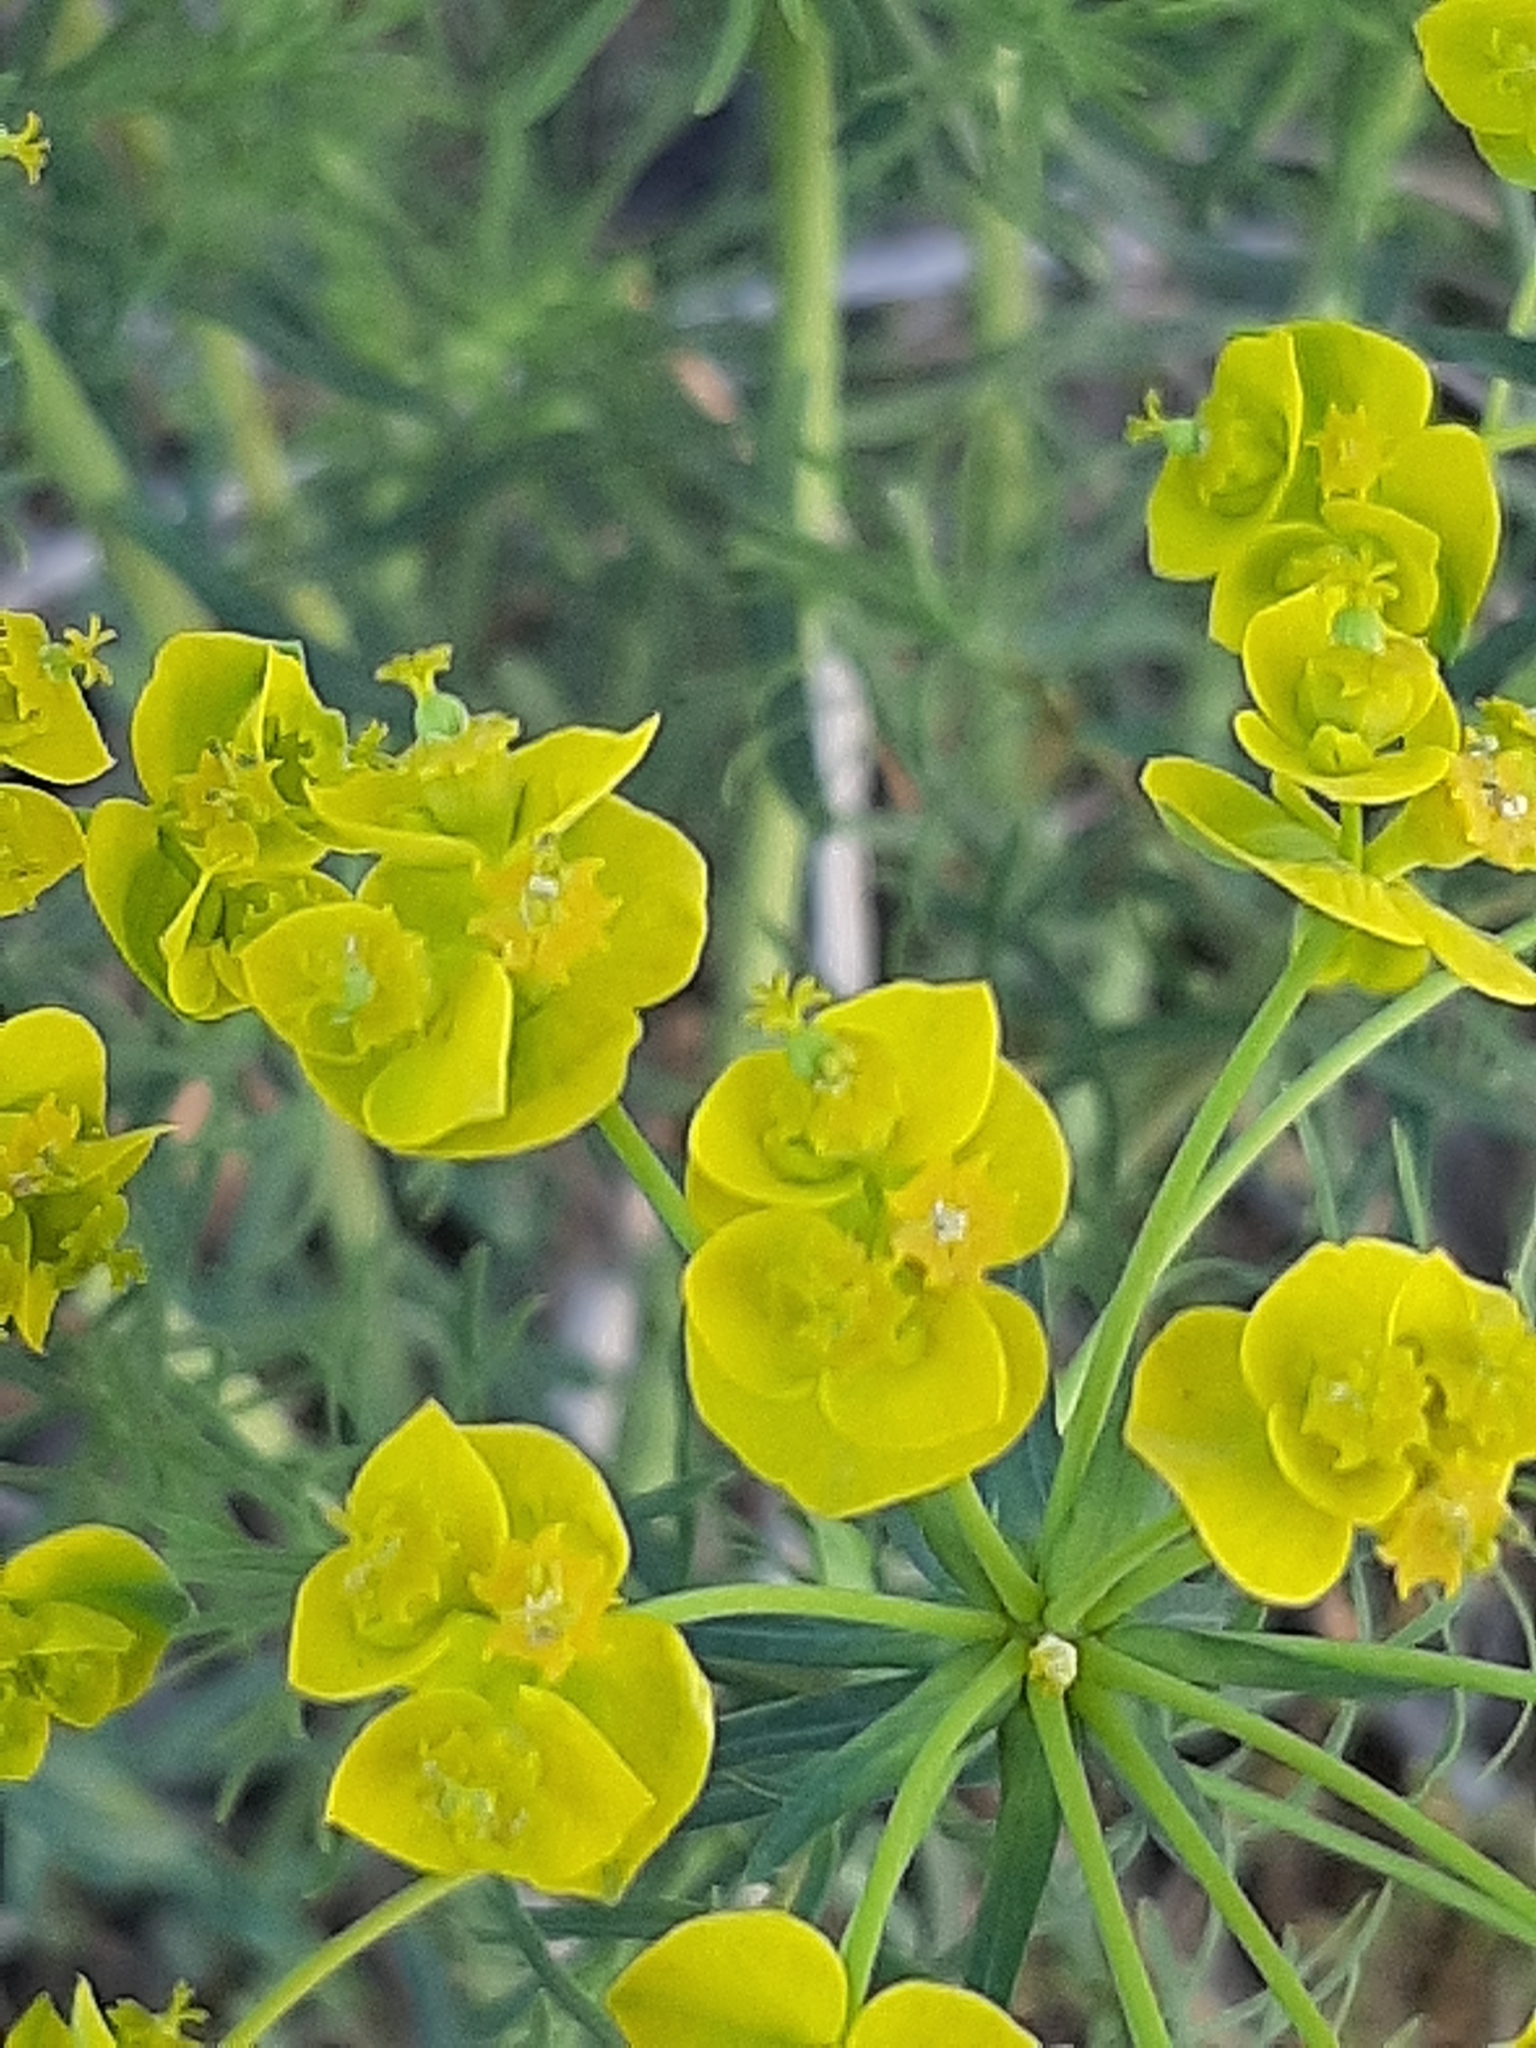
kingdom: Plantae
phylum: Tracheophyta
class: Magnoliopsida
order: Malpighiales
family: Euphorbiaceae
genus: Euphorbia
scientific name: Euphorbia cyparissias
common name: Cypress spurge
